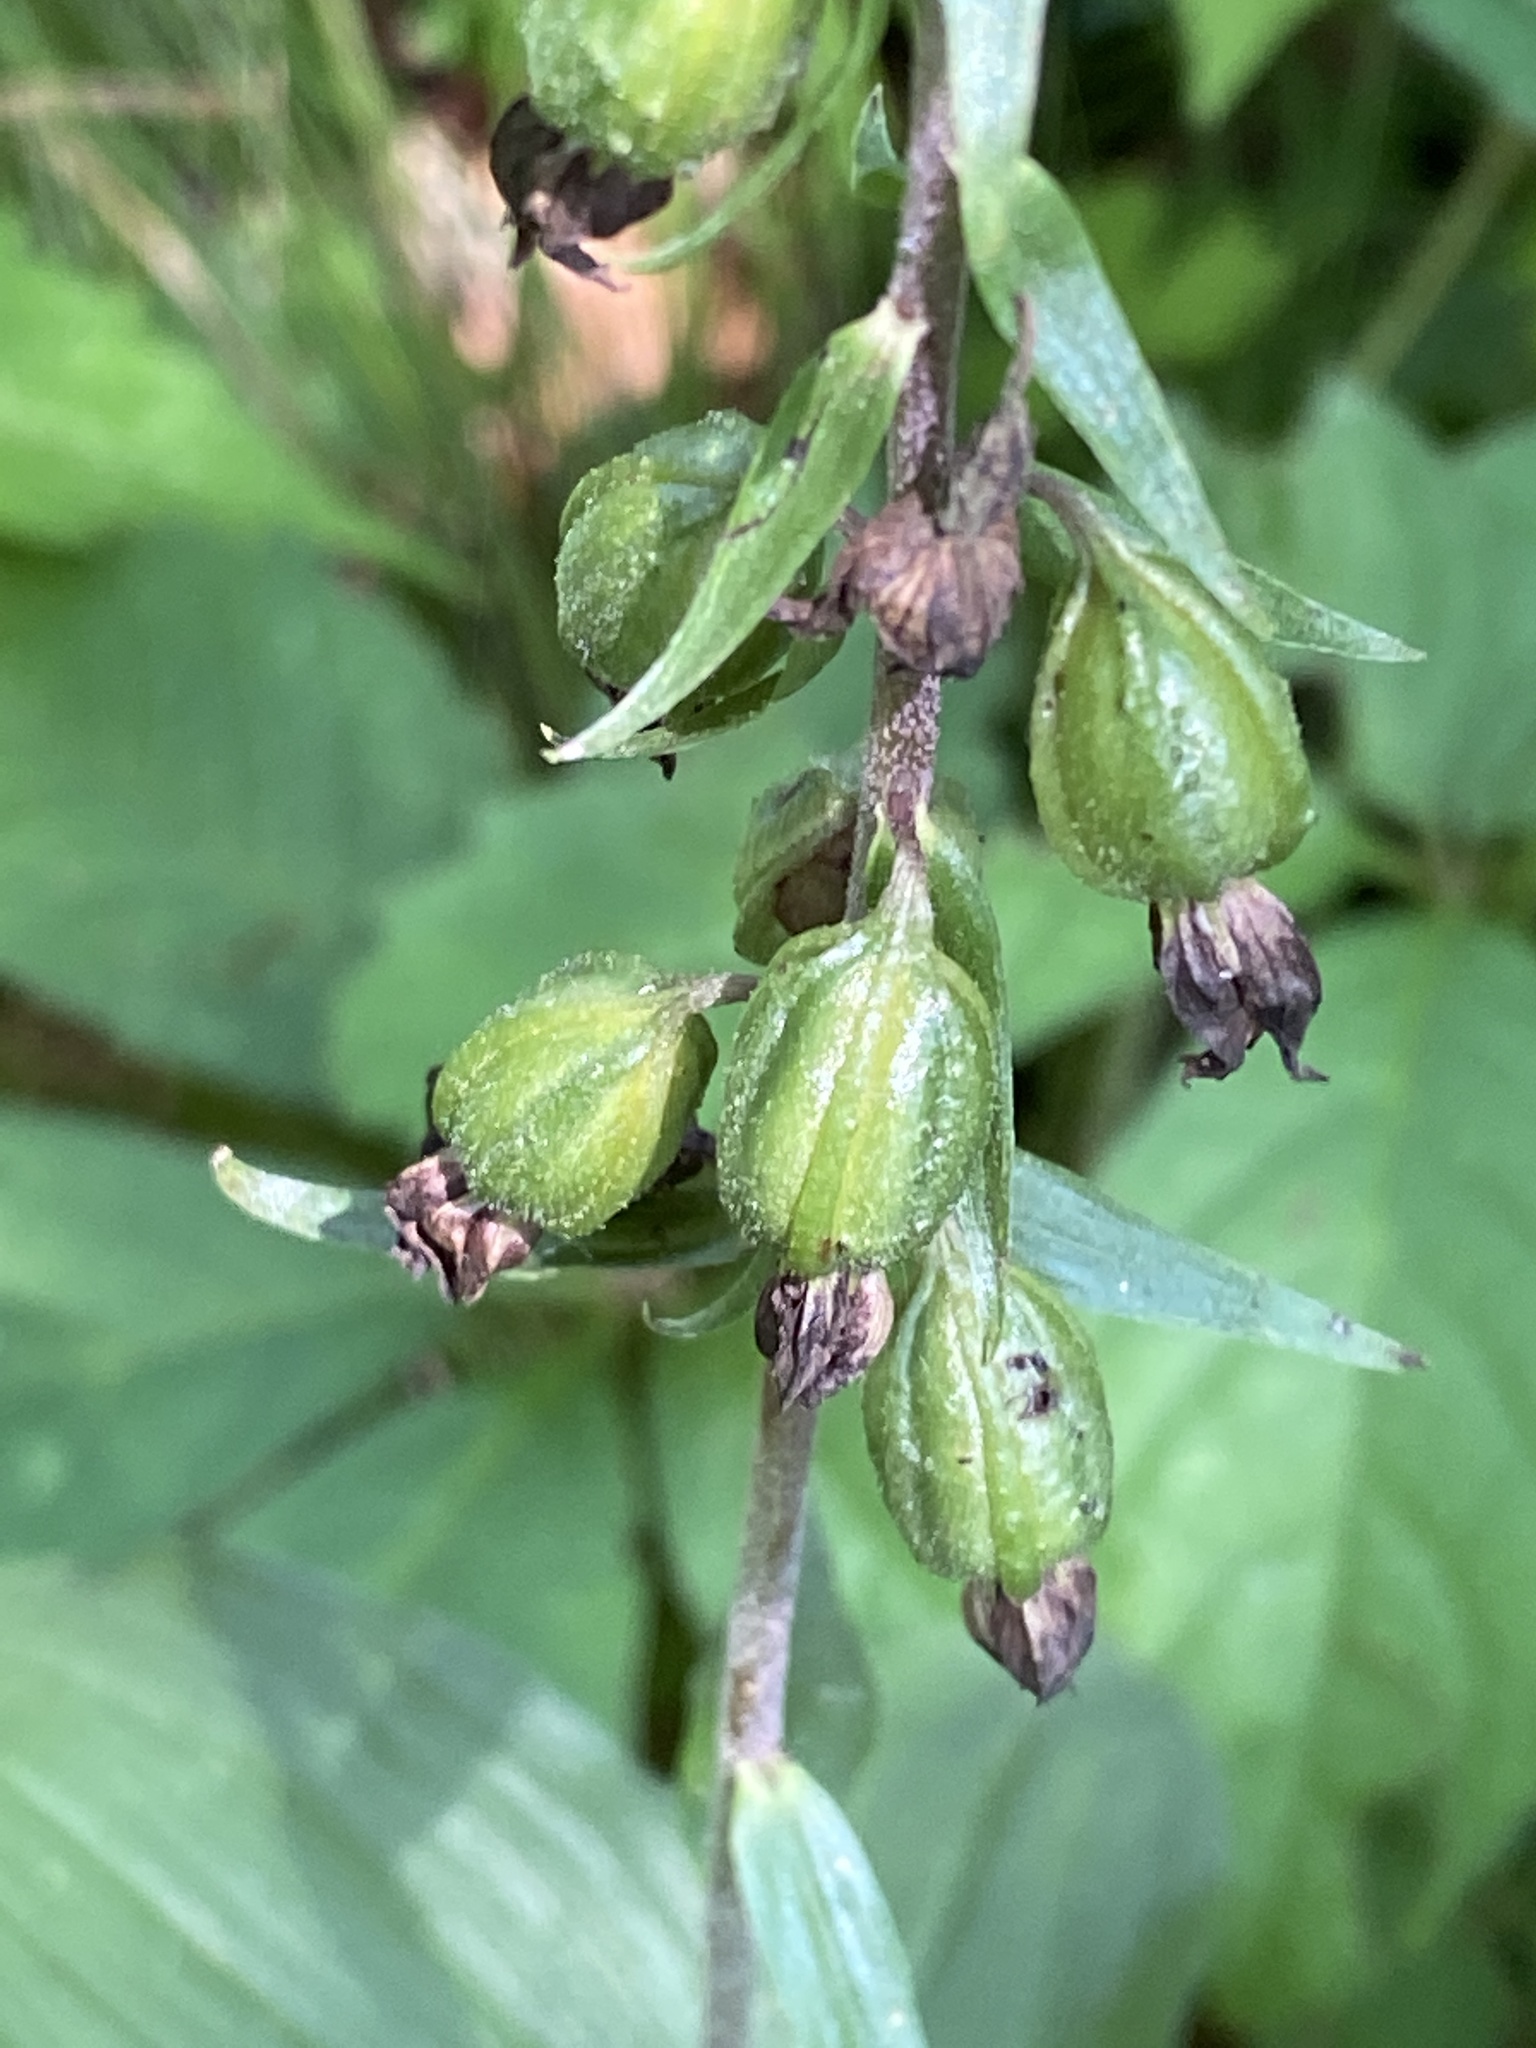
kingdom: Plantae
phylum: Tracheophyta
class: Liliopsida
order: Asparagales
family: Orchidaceae
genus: Epipactis
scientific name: Epipactis helleborine
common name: Broad-leaved helleborine
